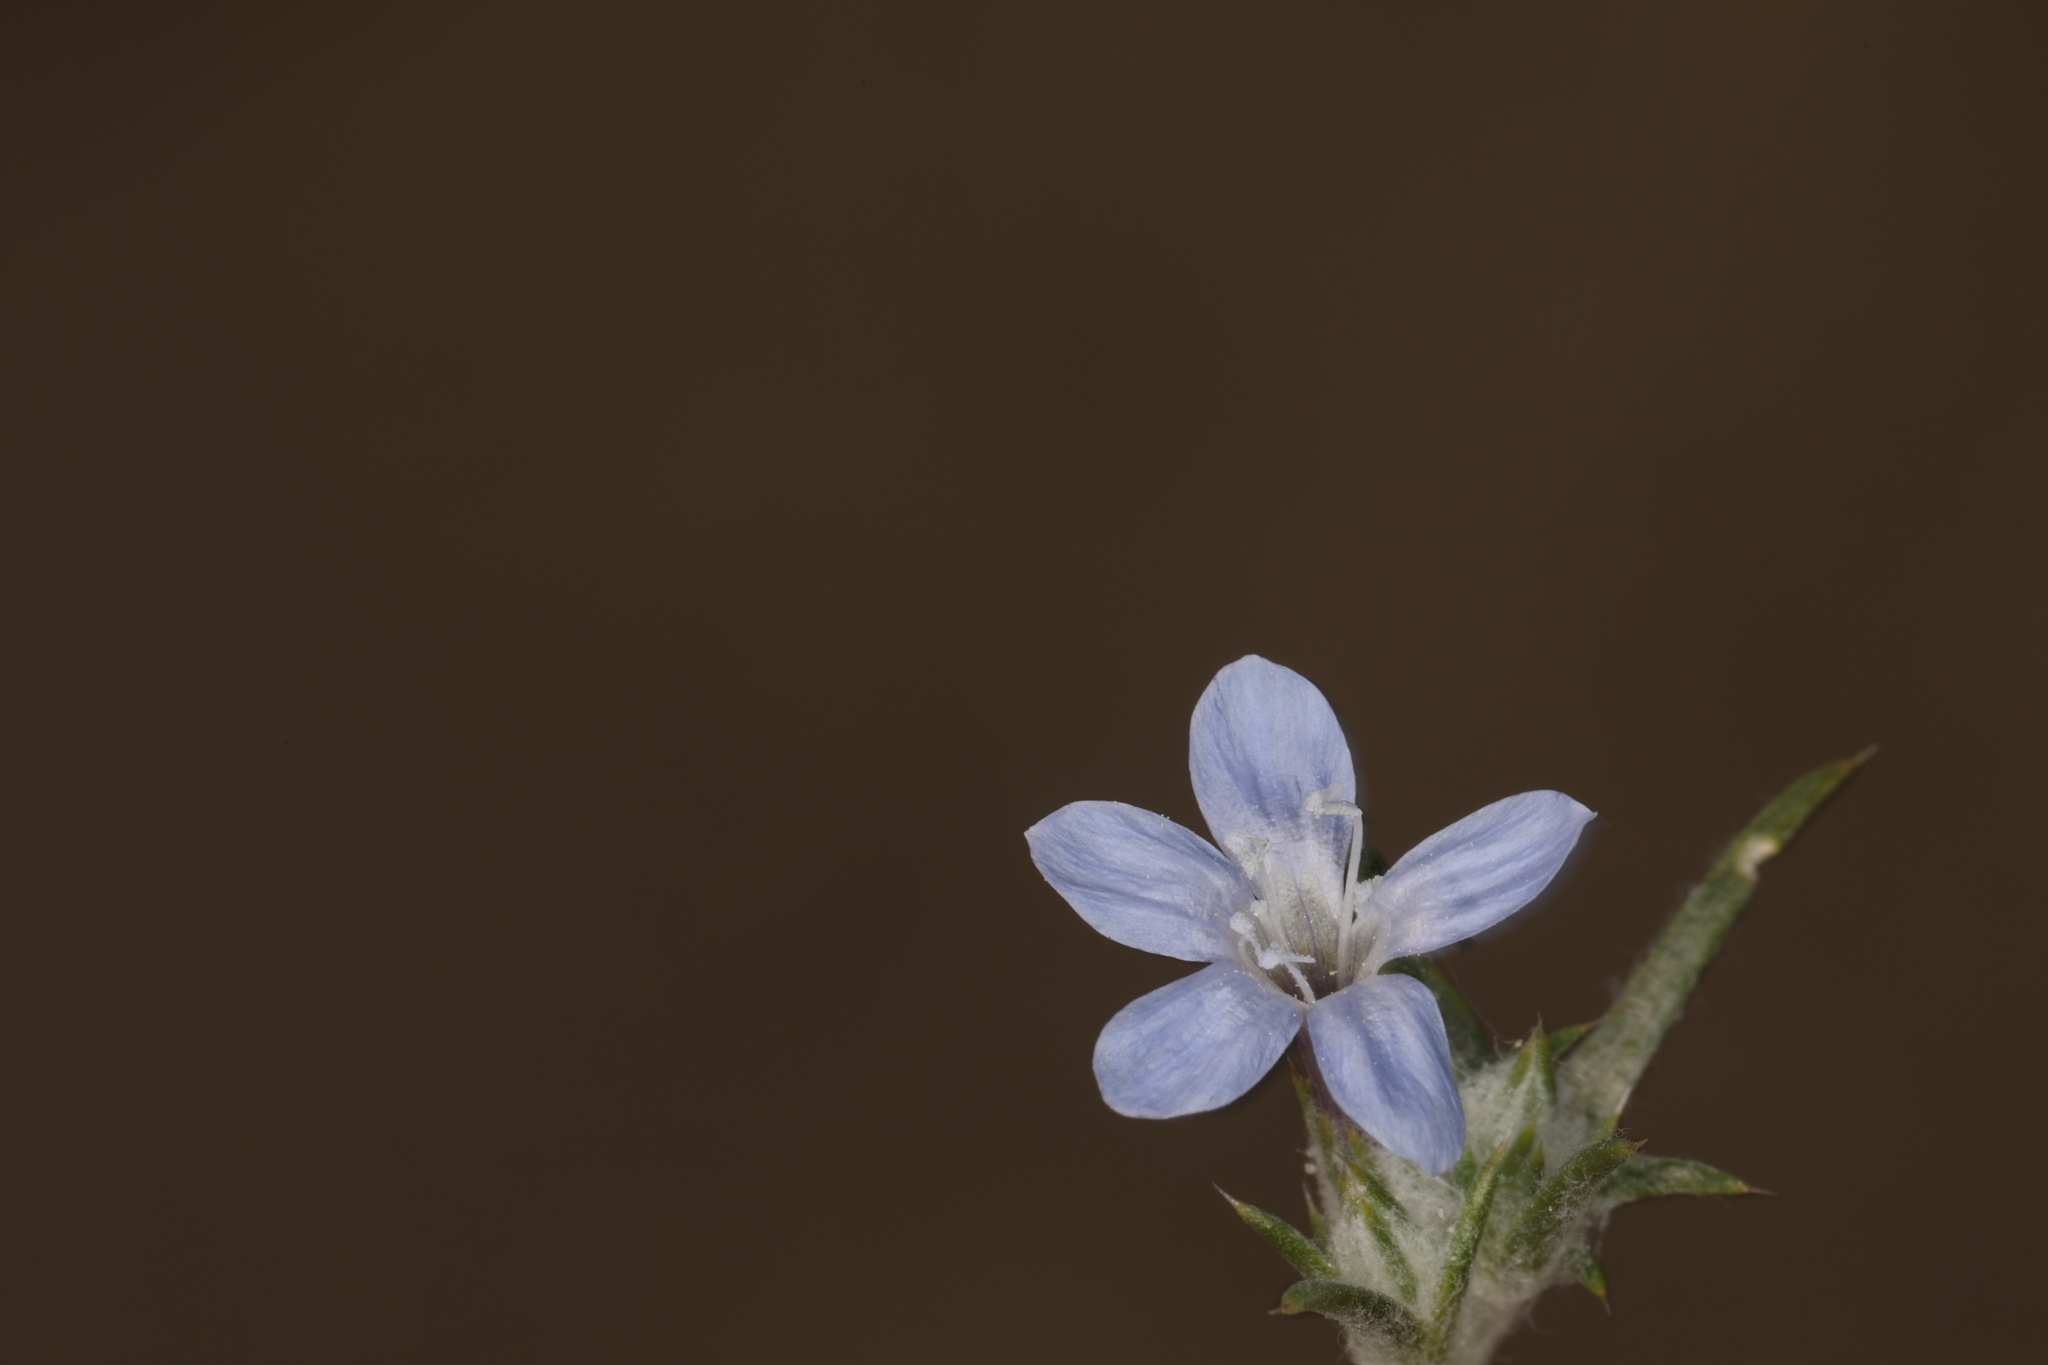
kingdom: Plantae
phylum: Tracheophyta
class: Magnoliopsida
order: Ericales
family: Polemoniaceae
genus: Eriastrum
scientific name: Eriastrum wilcoxii
